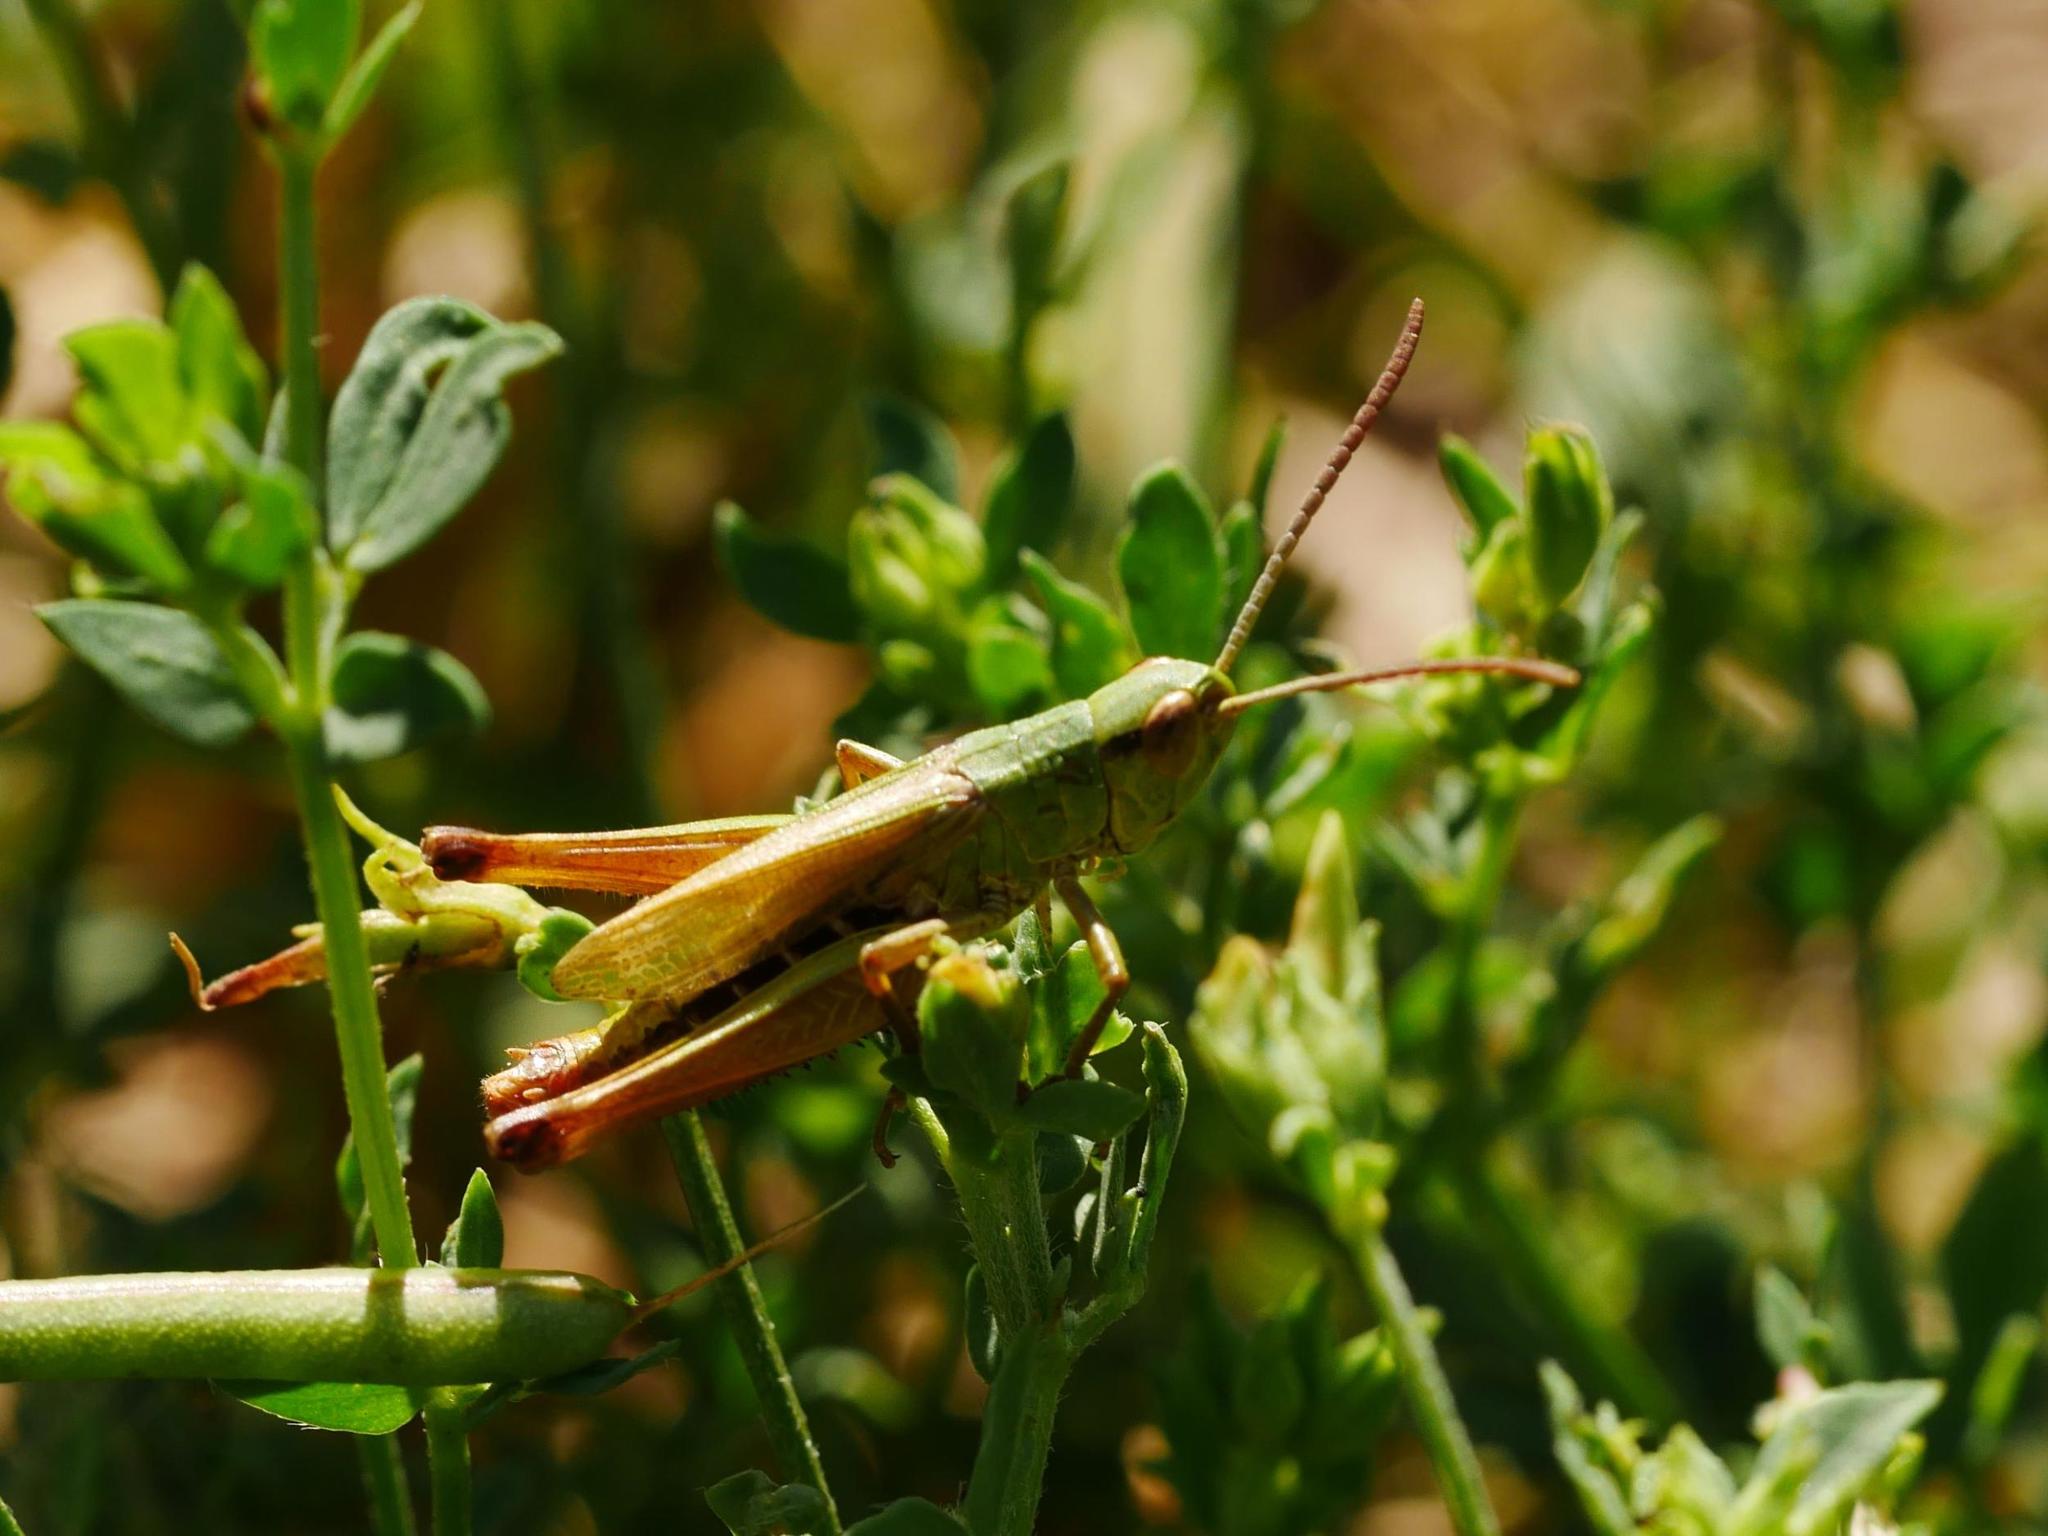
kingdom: Animalia
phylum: Arthropoda
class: Insecta
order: Orthoptera
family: Acrididae
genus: Pseudochorthippus
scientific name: Pseudochorthippus parallelus
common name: Meadow grasshopper
